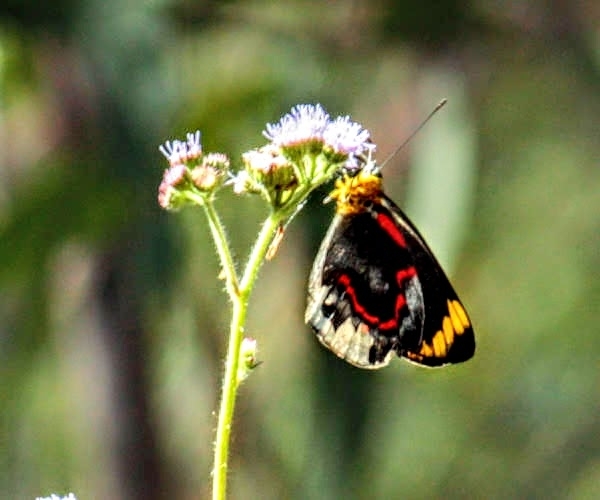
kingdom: Animalia
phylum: Arthropoda
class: Insecta
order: Lepidoptera
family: Pieridae
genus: Delias
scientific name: Delias nigrina
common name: Black jezebel
